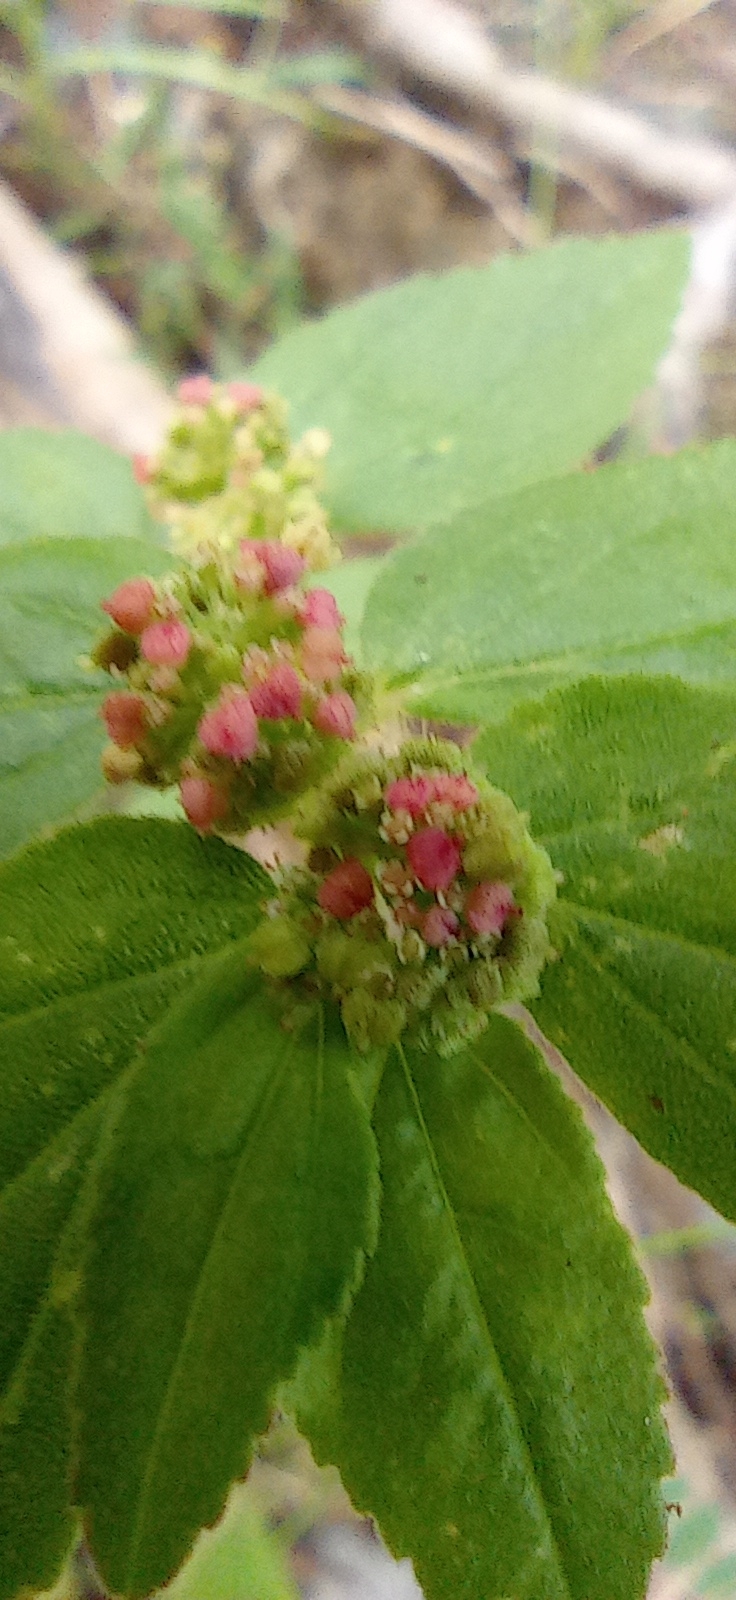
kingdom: Plantae
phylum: Tracheophyta
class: Magnoliopsida
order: Malpighiales
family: Euphorbiaceae
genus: Euphorbia
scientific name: Euphorbia hirta
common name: Pillpod sandmat
